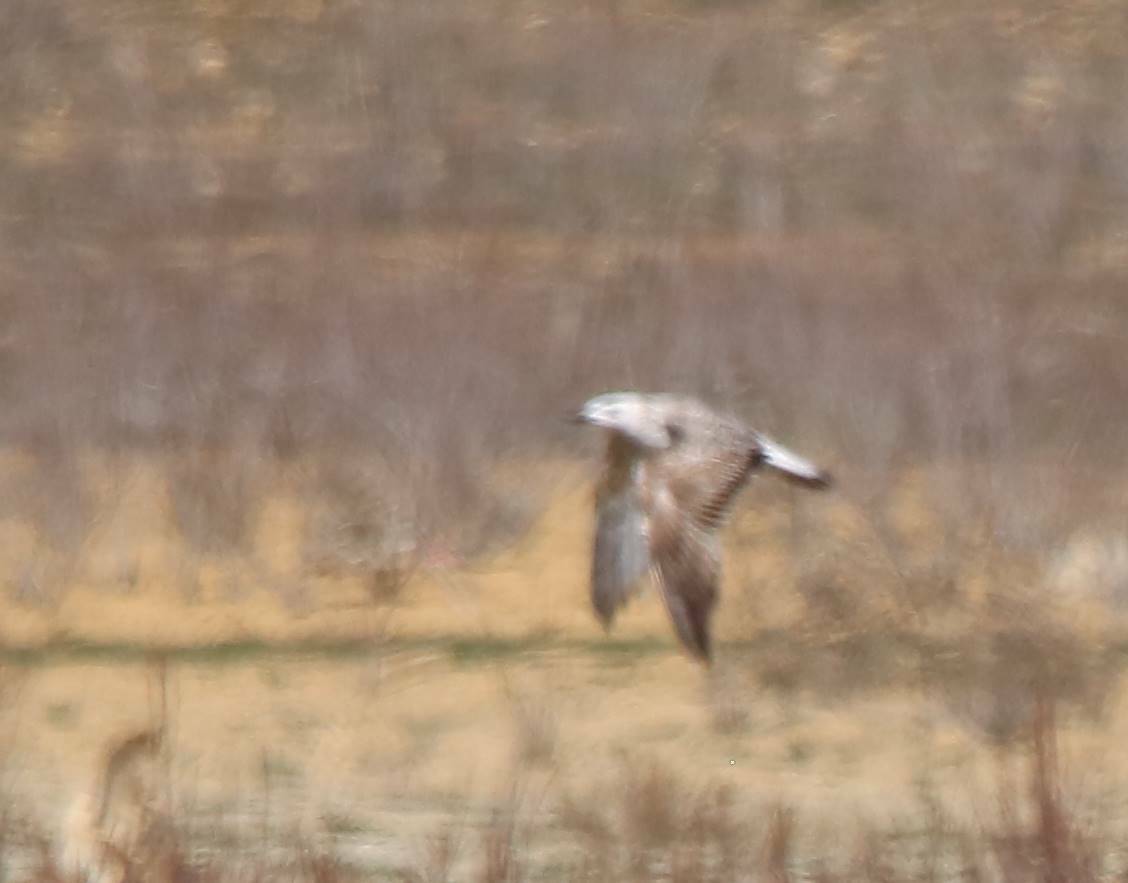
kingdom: Animalia
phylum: Chordata
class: Aves
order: Charadriiformes
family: Laridae
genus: Larus
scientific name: Larus michahellis
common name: Yellow-legged gull
